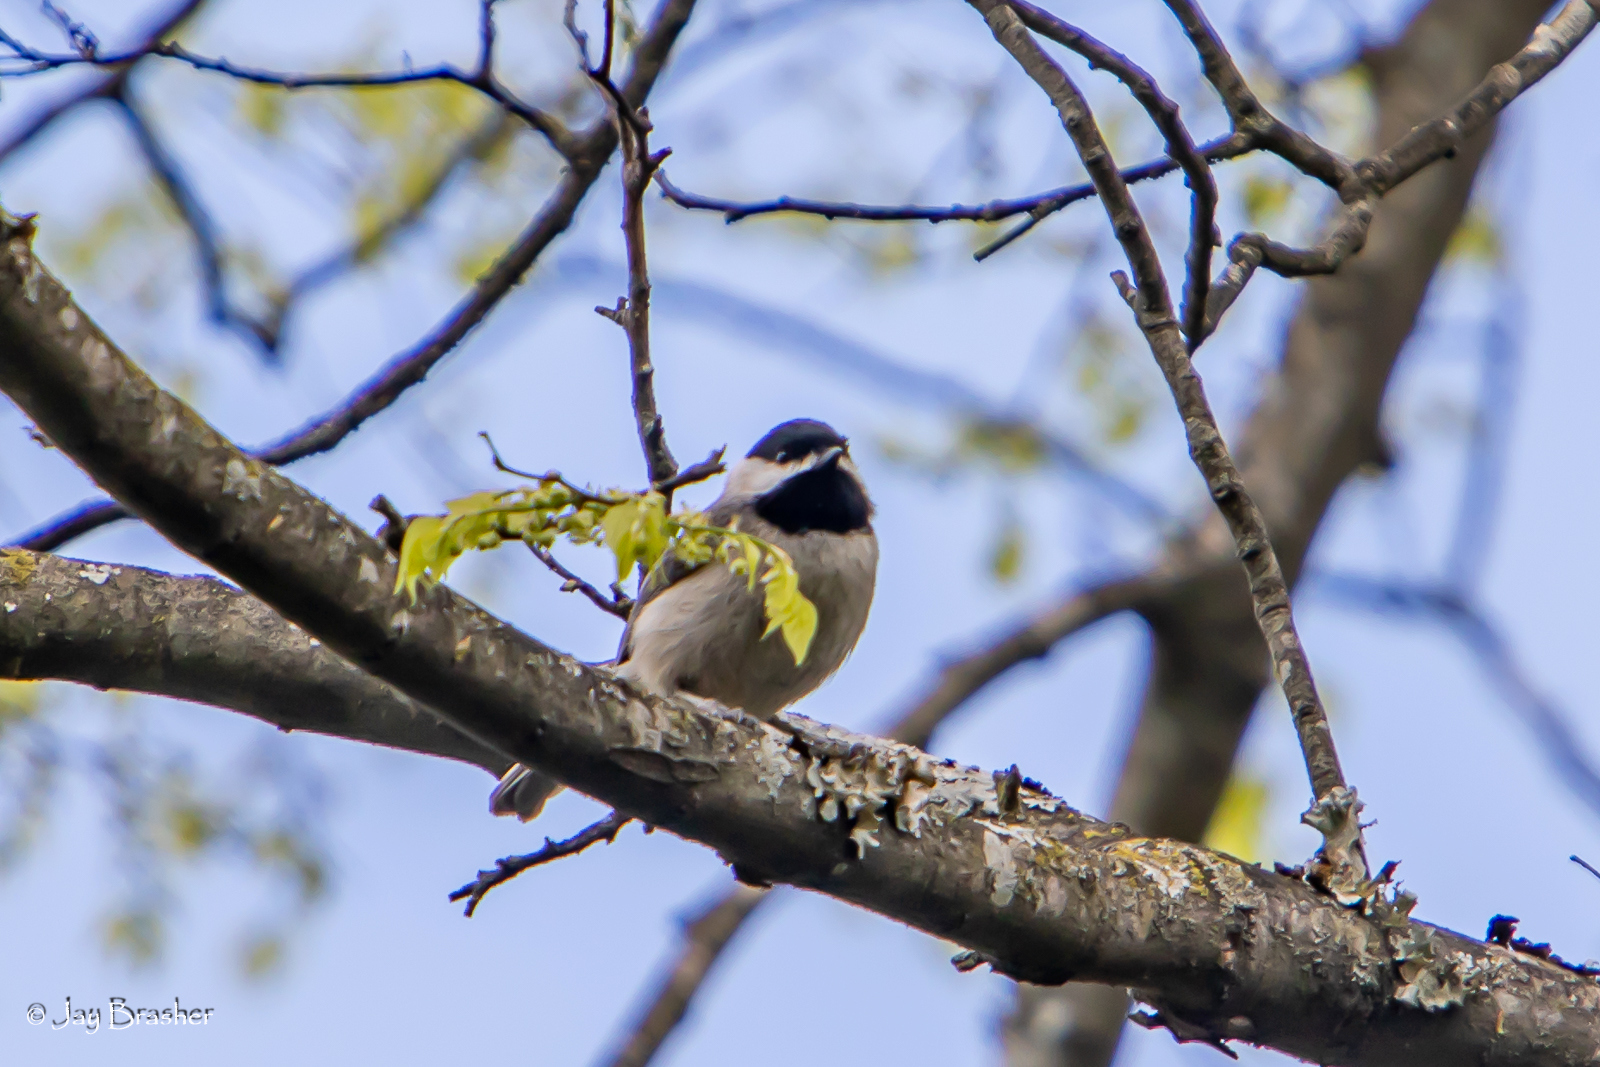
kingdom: Animalia
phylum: Chordata
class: Aves
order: Passeriformes
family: Paridae
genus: Poecile
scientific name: Poecile carolinensis
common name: Carolina chickadee
